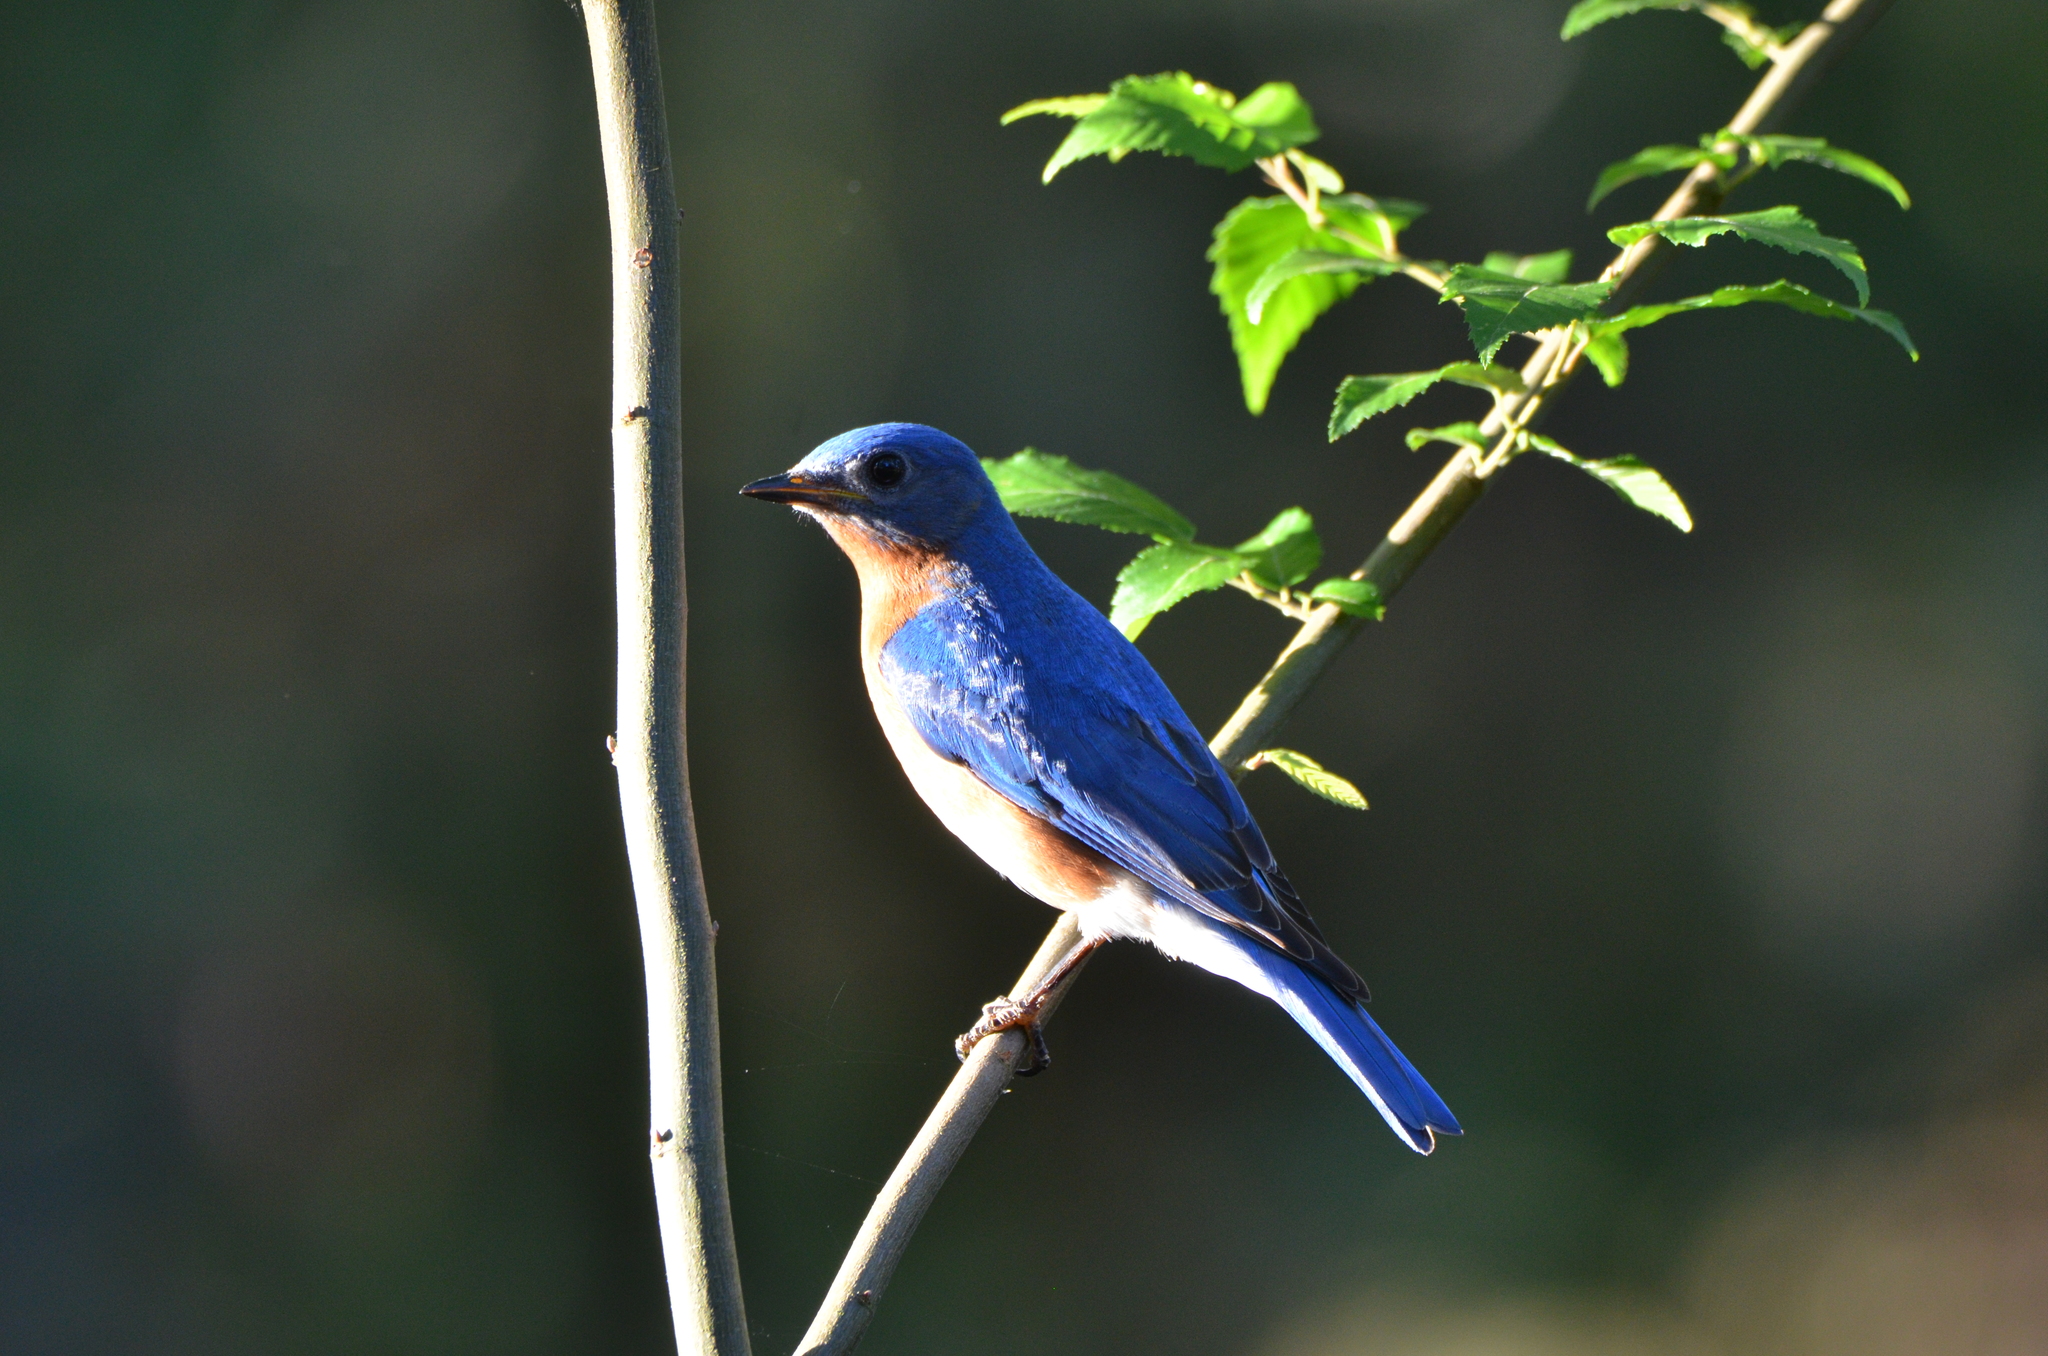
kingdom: Animalia
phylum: Chordata
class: Aves
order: Passeriformes
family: Turdidae
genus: Sialia
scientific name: Sialia sialis
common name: Eastern bluebird
